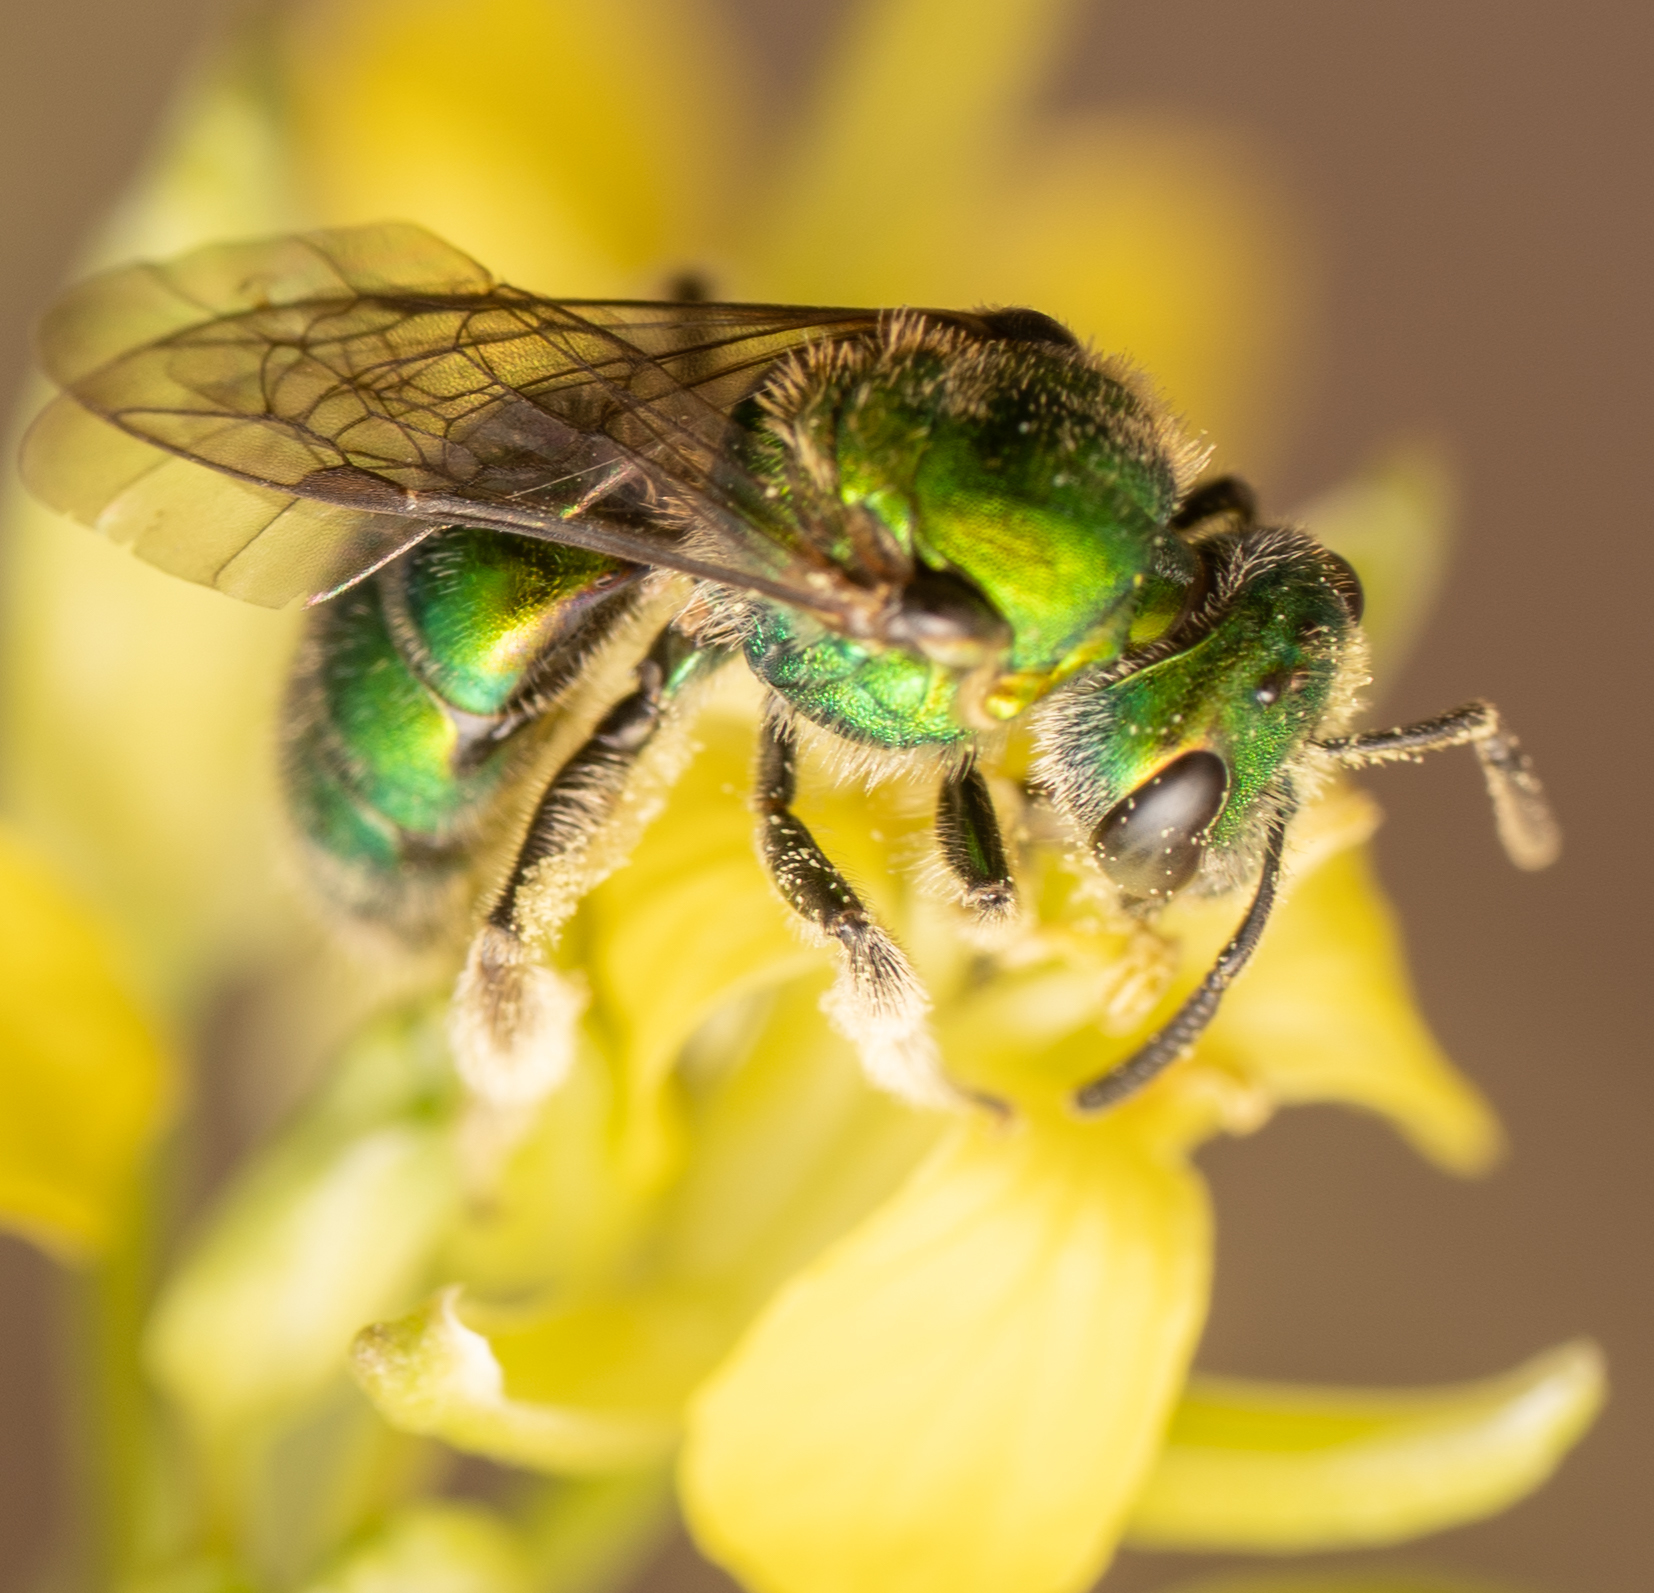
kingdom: Animalia
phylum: Arthropoda
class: Insecta
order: Hymenoptera
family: Halictidae
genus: Augochlorella
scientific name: Augochlorella pomoniella
